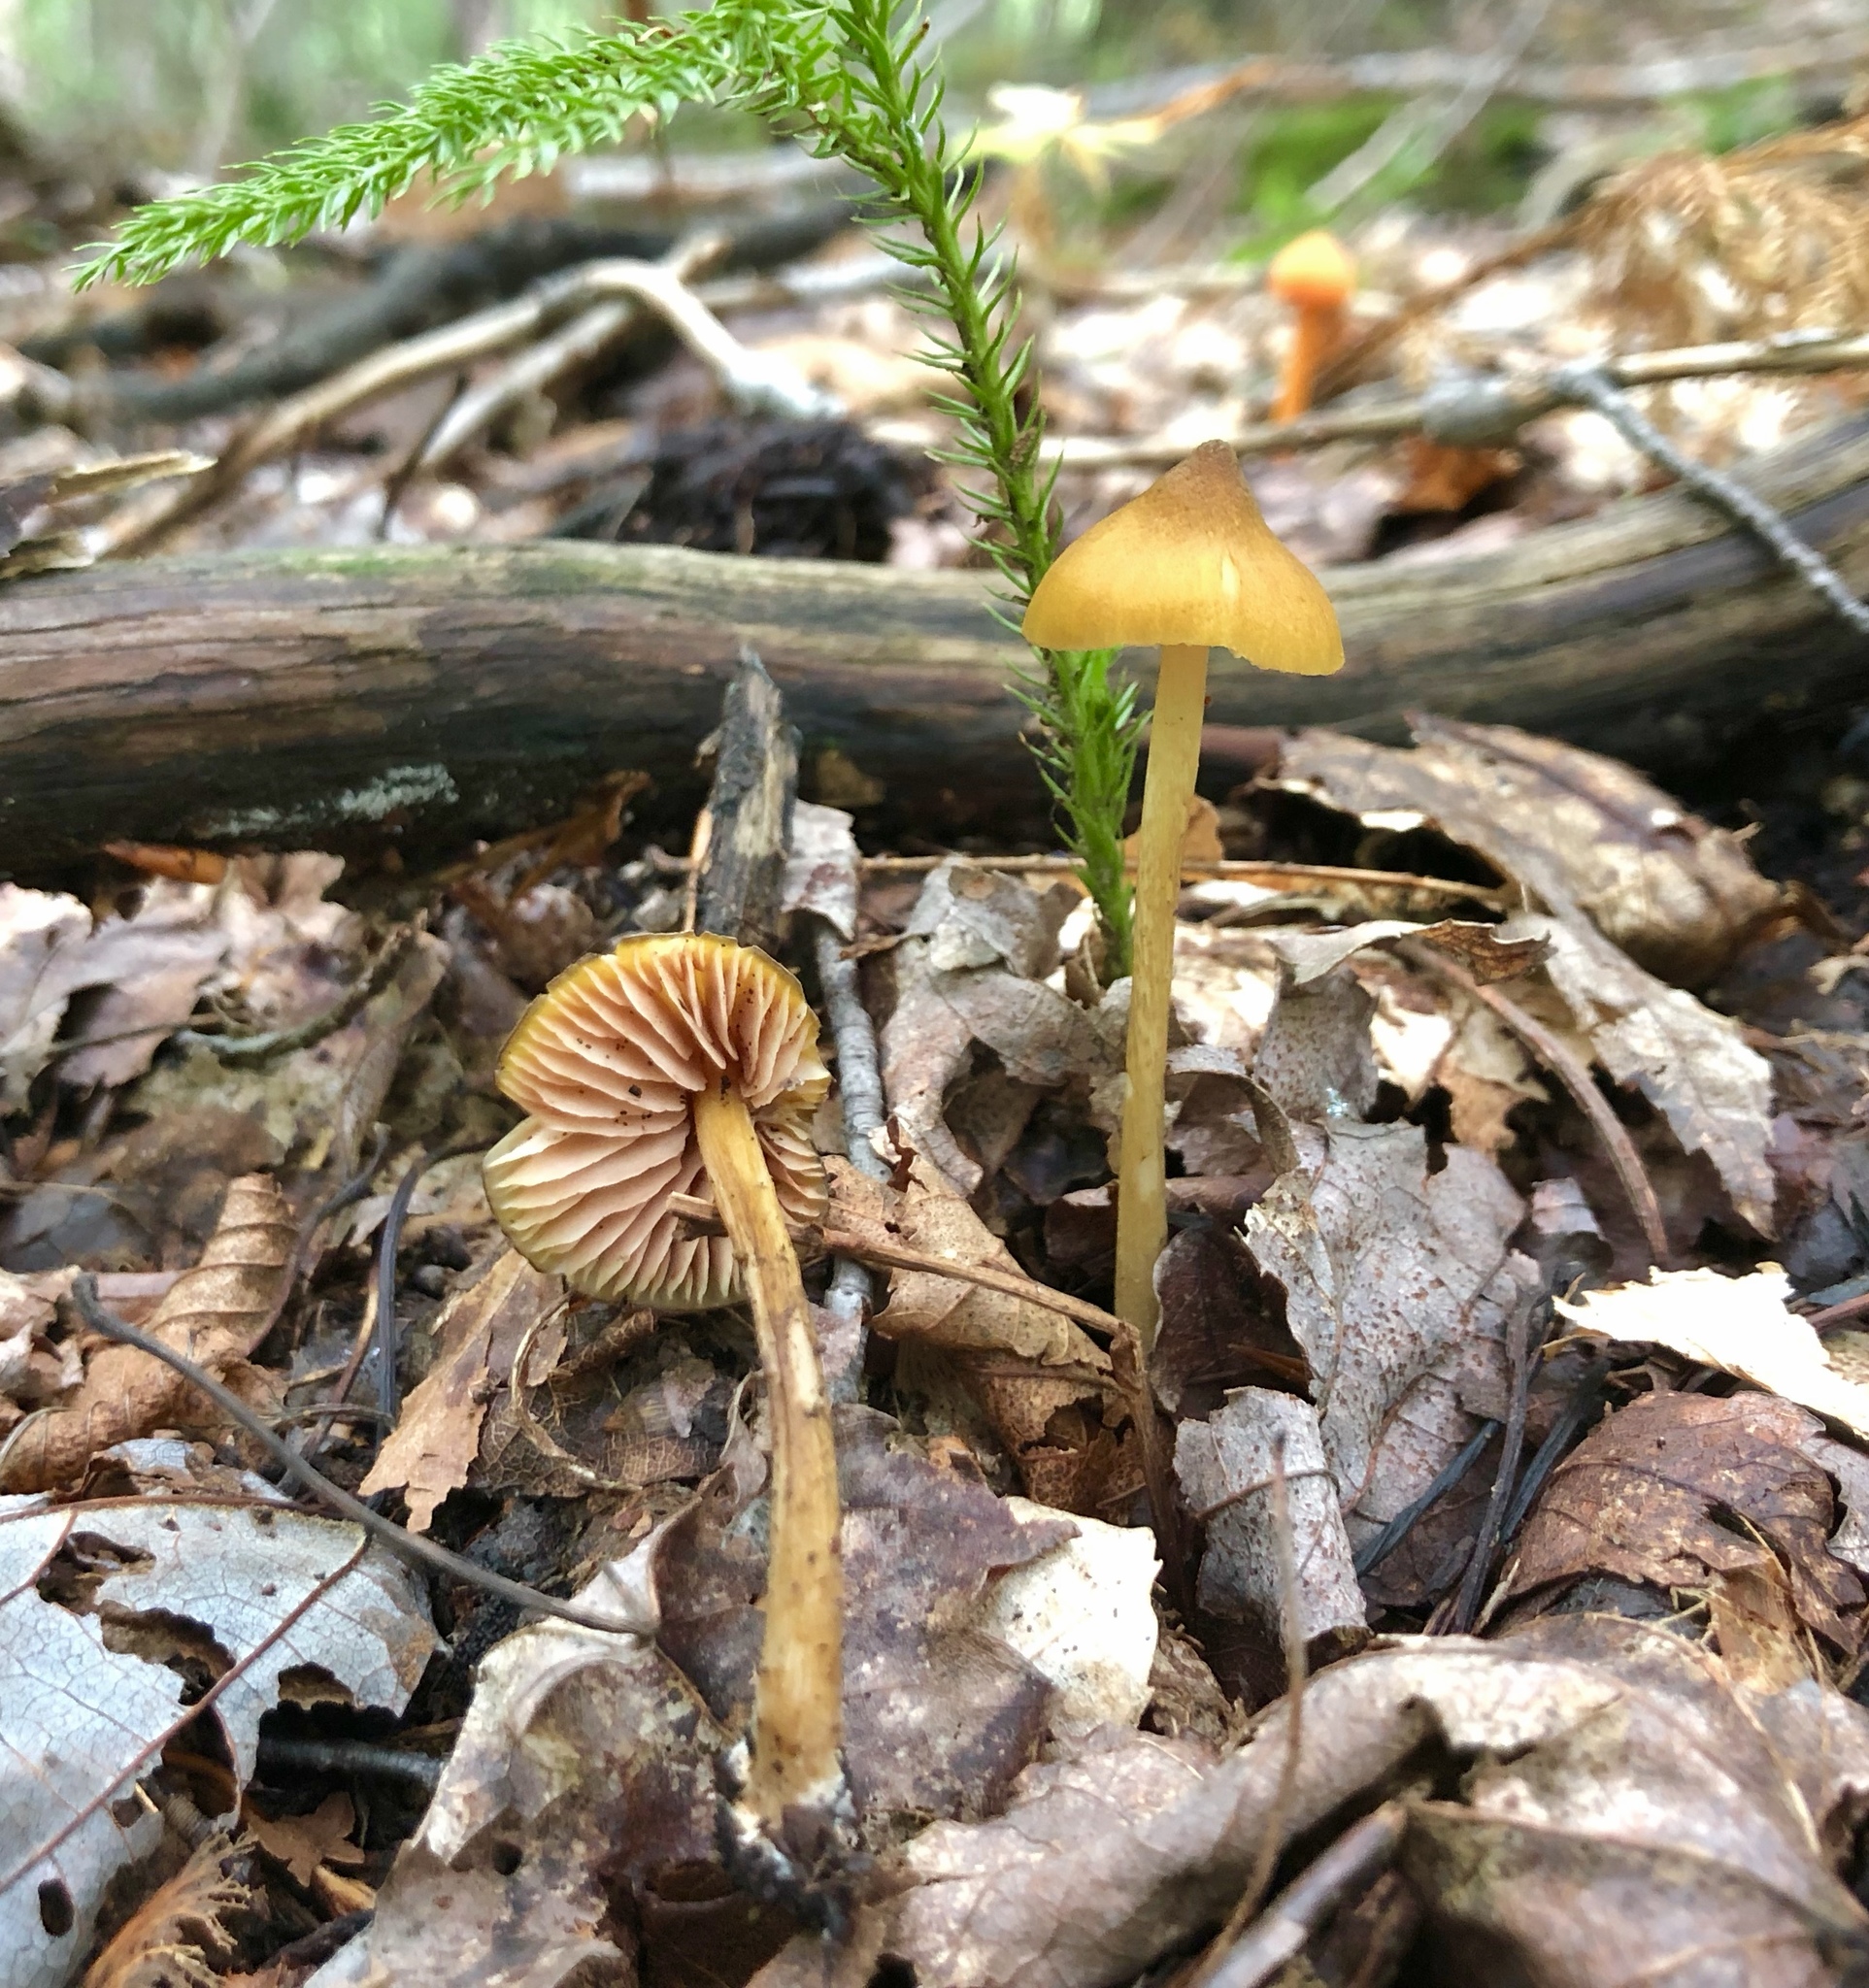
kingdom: Fungi
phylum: Basidiomycota
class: Agaricomycetes
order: Agaricales
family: Entolomataceae
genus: Entoloma
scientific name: Entoloma luteum
